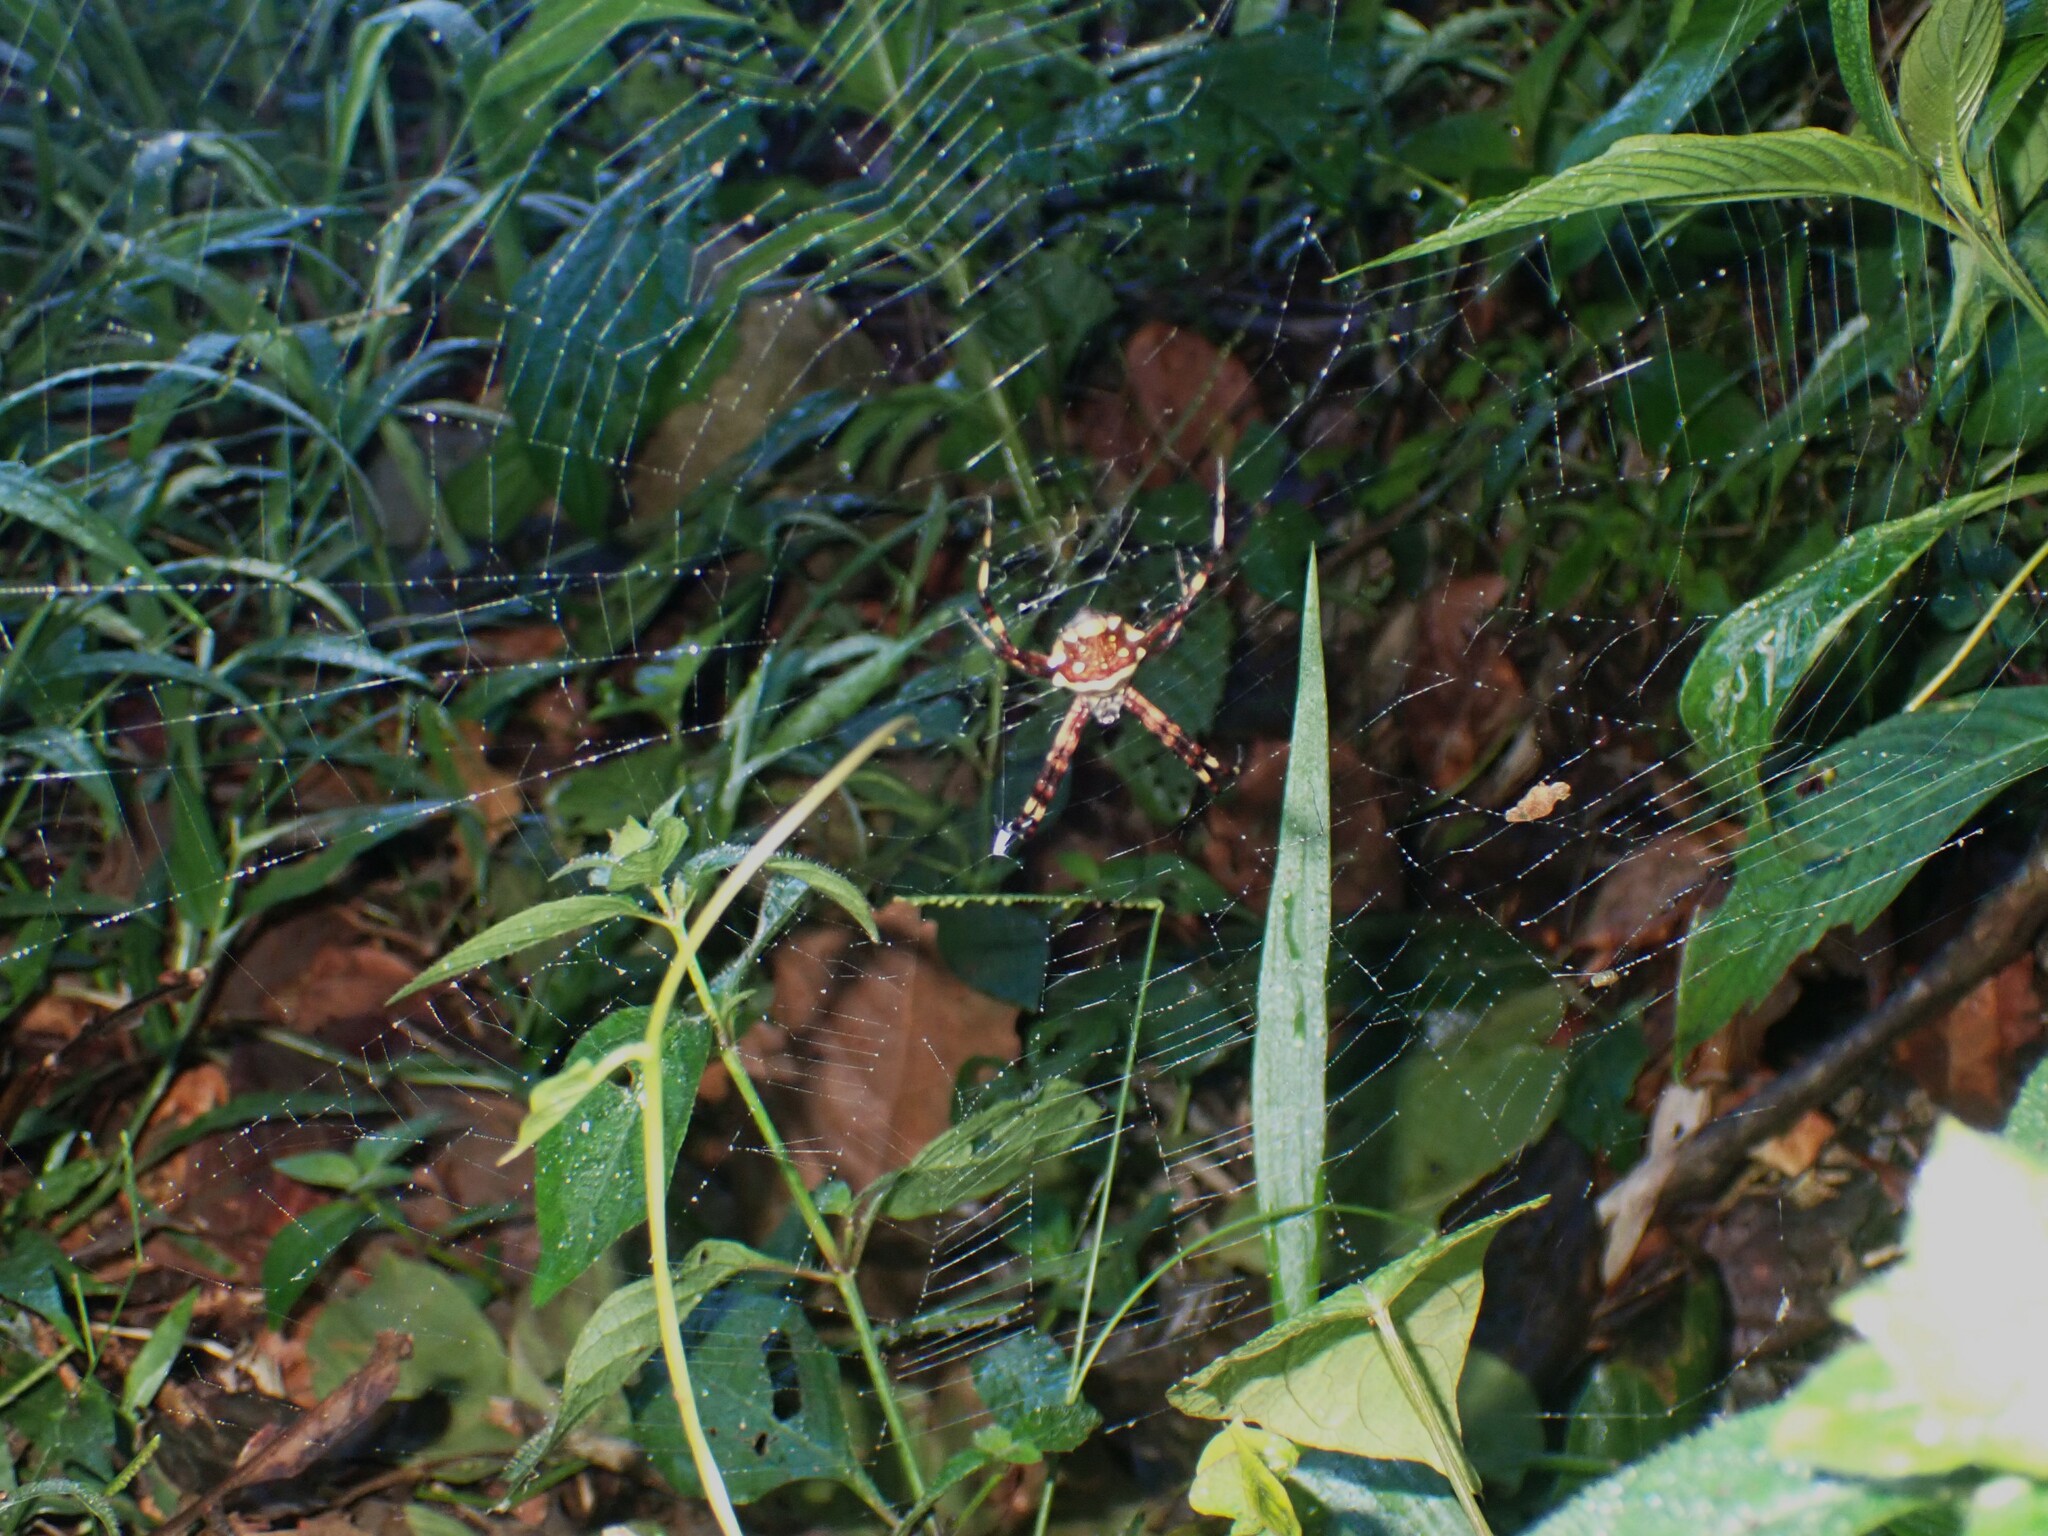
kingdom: Animalia
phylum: Arthropoda
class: Arachnida
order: Araneae
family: Araneidae
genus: Argiope
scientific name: Argiope argentata
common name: Orb weavers
